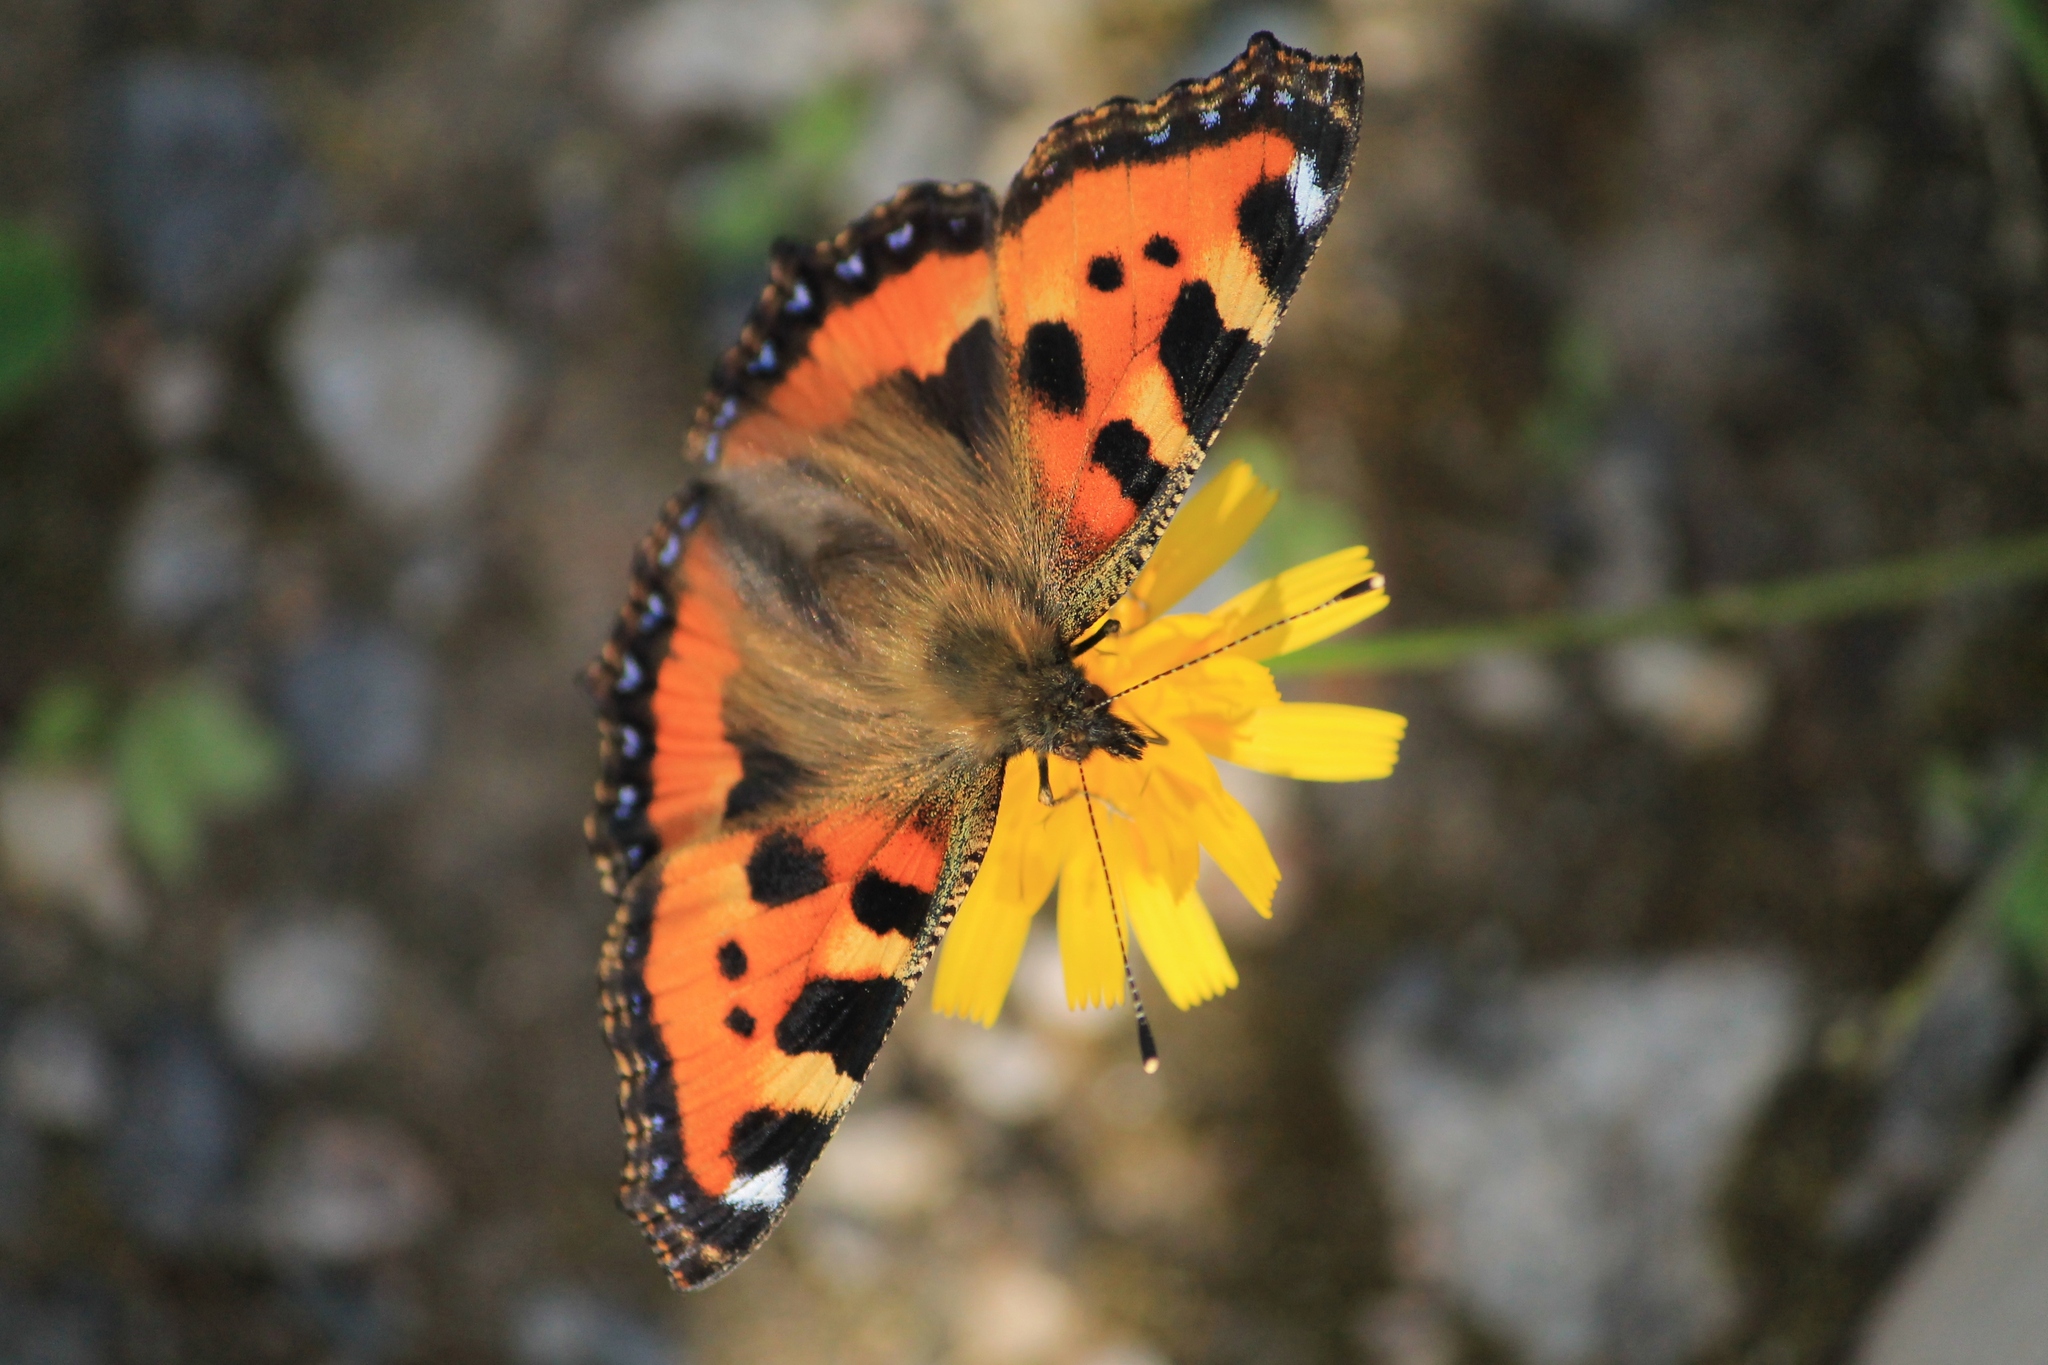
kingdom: Animalia
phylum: Arthropoda
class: Insecta
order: Lepidoptera
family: Nymphalidae
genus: Aglais
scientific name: Aglais urticae
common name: Small tortoiseshell
